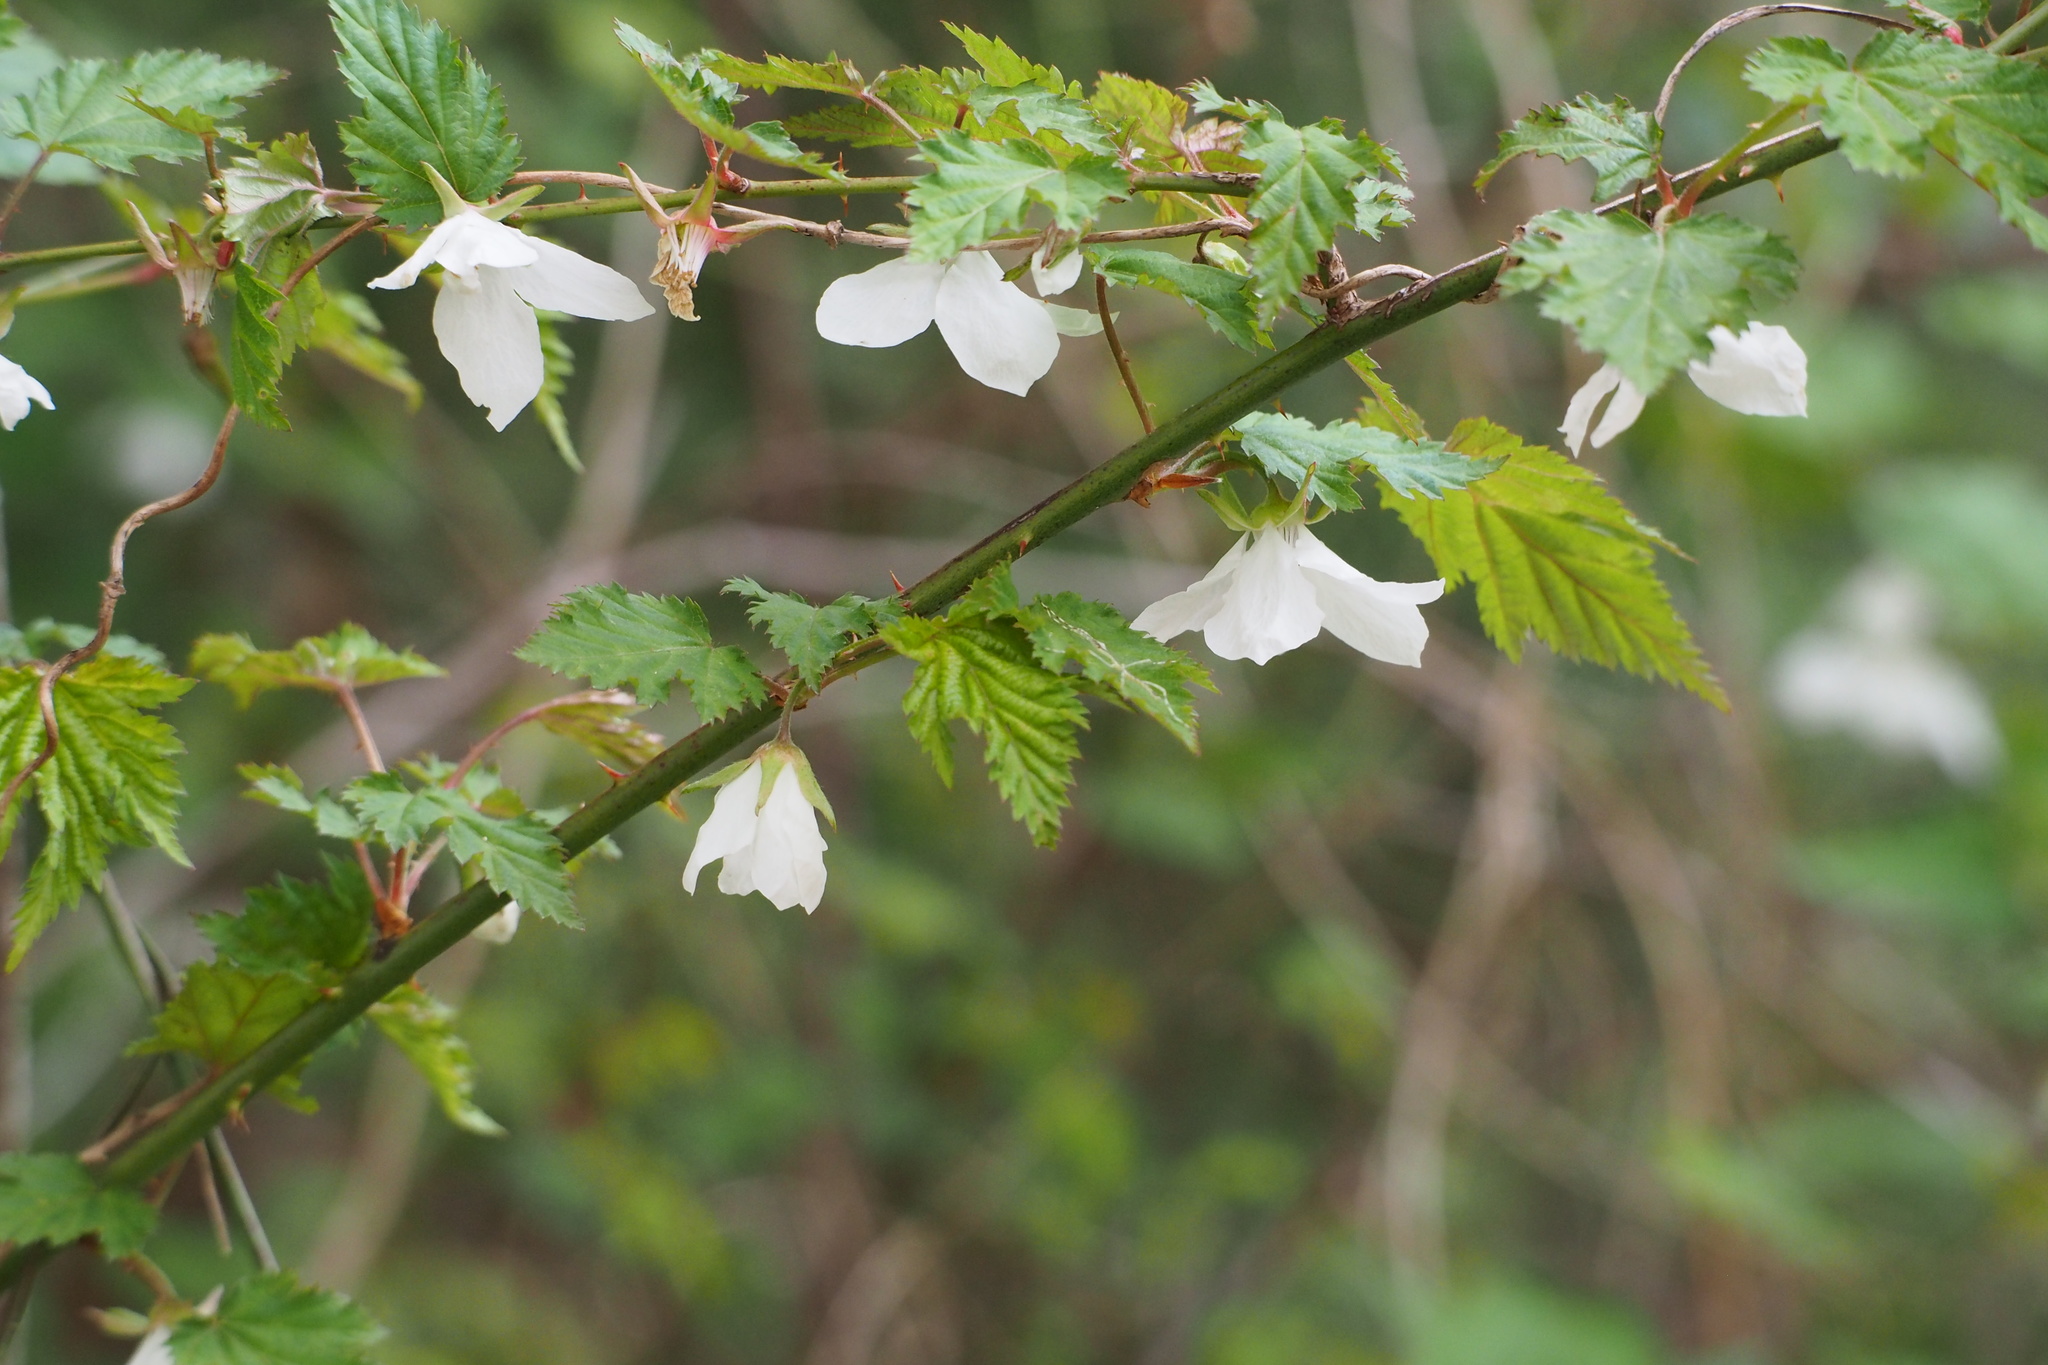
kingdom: Plantae
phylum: Tracheophyta
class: Magnoliopsida
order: Rosales
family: Rosaceae
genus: Rubus
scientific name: Rubus palmatus
